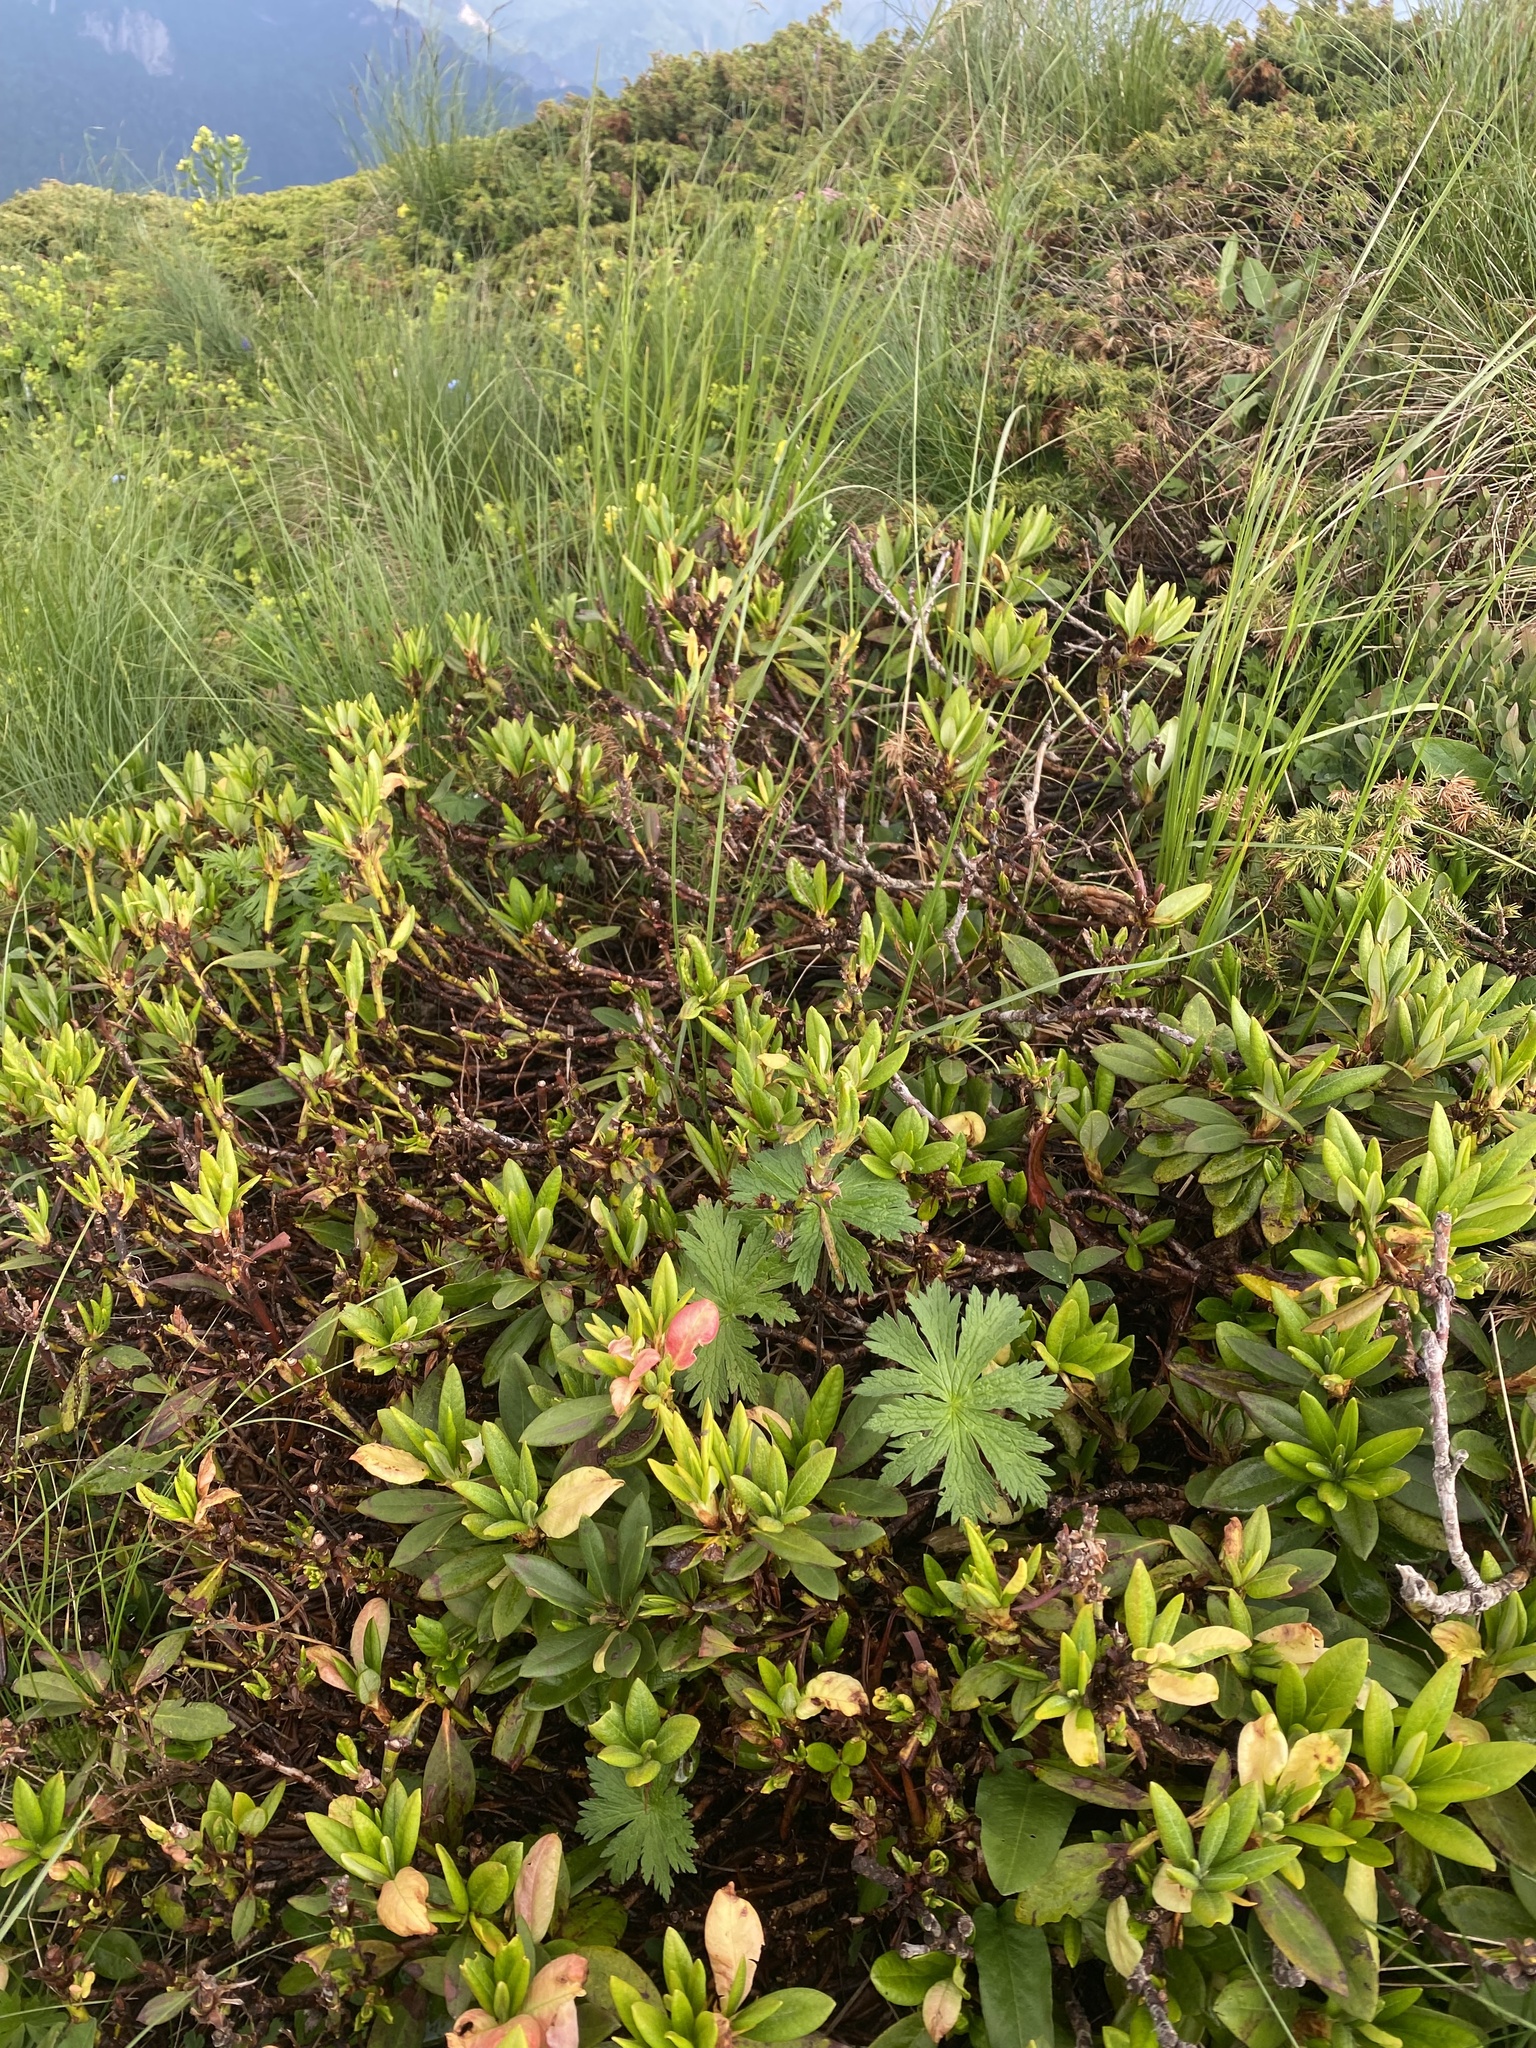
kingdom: Plantae
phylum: Tracheophyta
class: Magnoliopsida
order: Ericales
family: Ericaceae
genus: Rhododendron
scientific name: Rhododendron caucasicum
